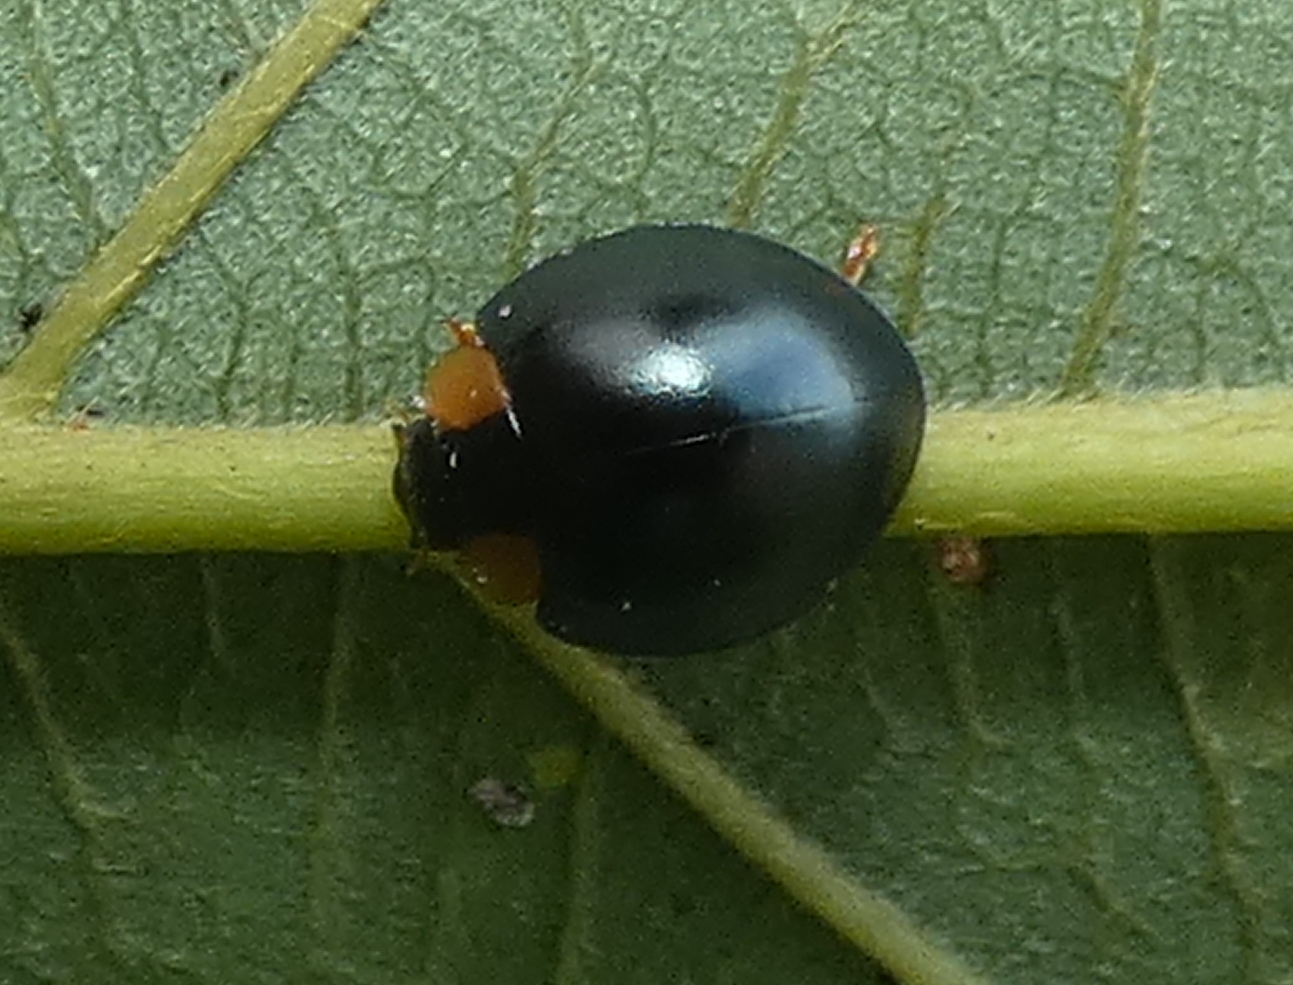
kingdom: Animalia
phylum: Arthropoda
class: Insecta
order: Coleoptera
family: Coccinellidae
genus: Curinus
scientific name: Curinus
